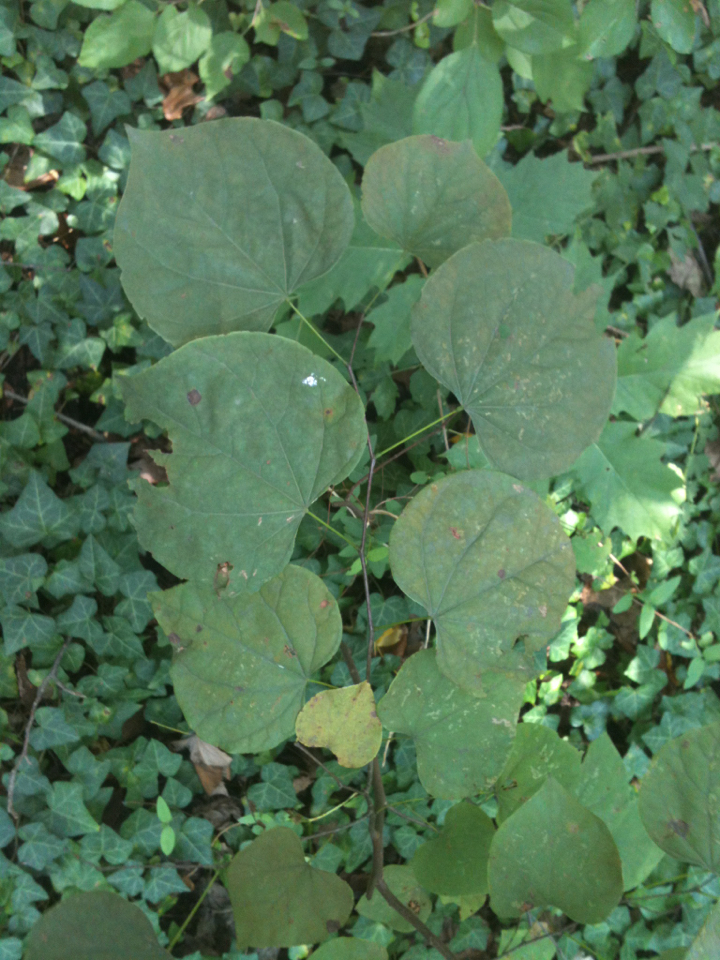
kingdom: Plantae
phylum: Tracheophyta
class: Magnoliopsida
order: Fabales
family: Fabaceae
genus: Cercis
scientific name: Cercis canadensis
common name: Eastern redbud
